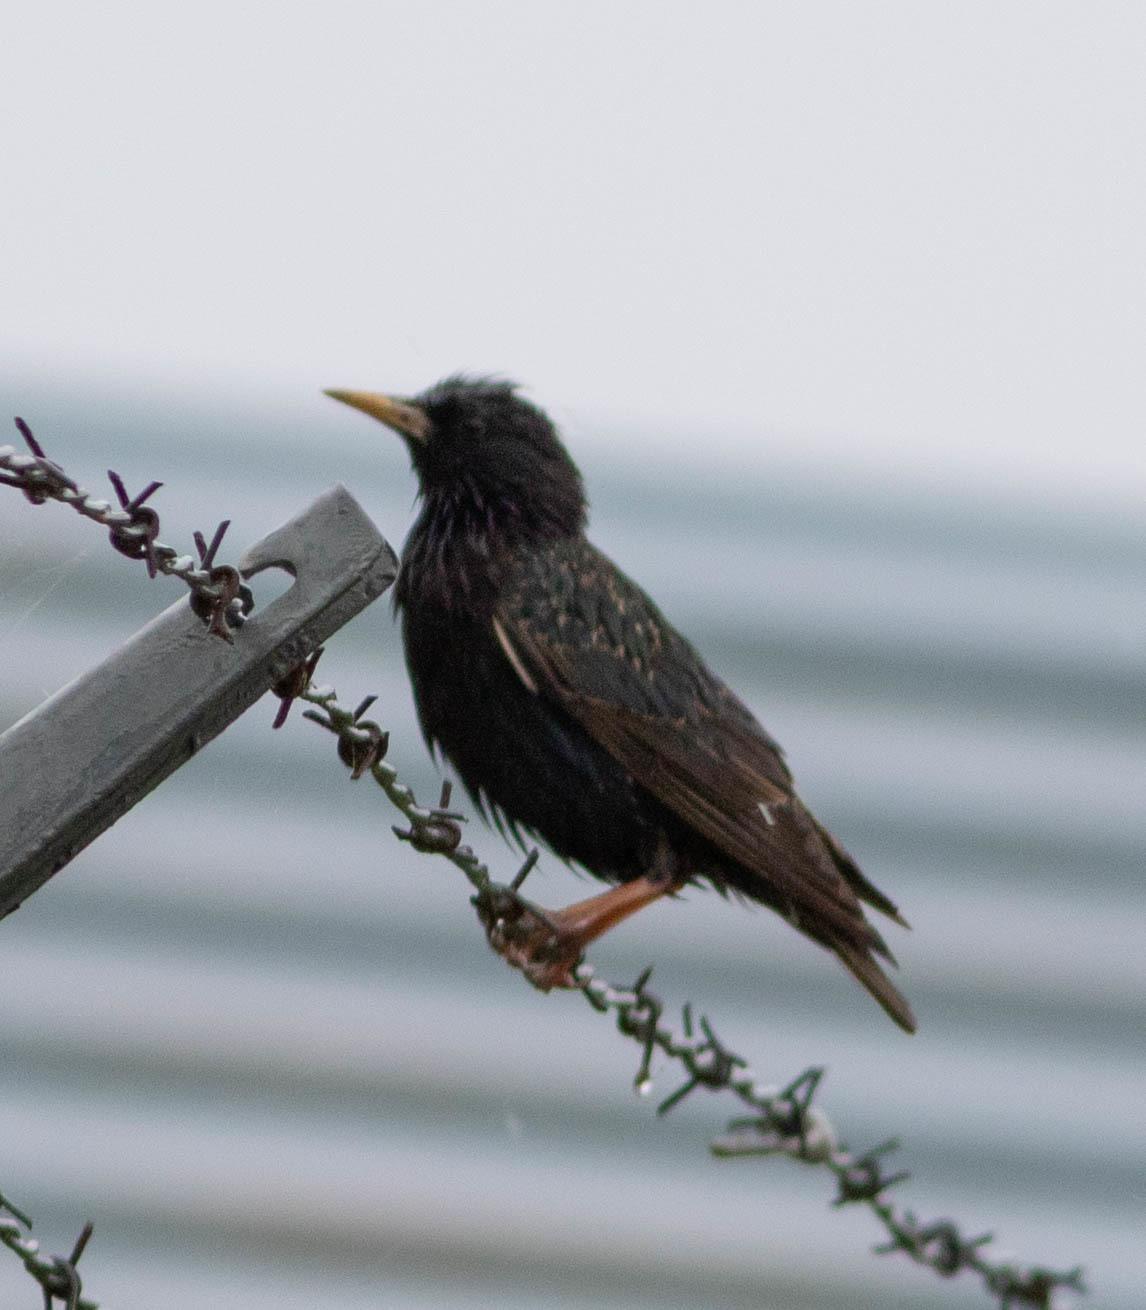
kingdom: Animalia
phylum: Chordata
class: Aves
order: Passeriformes
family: Sturnidae
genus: Sturnus
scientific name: Sturnus vulgaris
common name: Common starling
